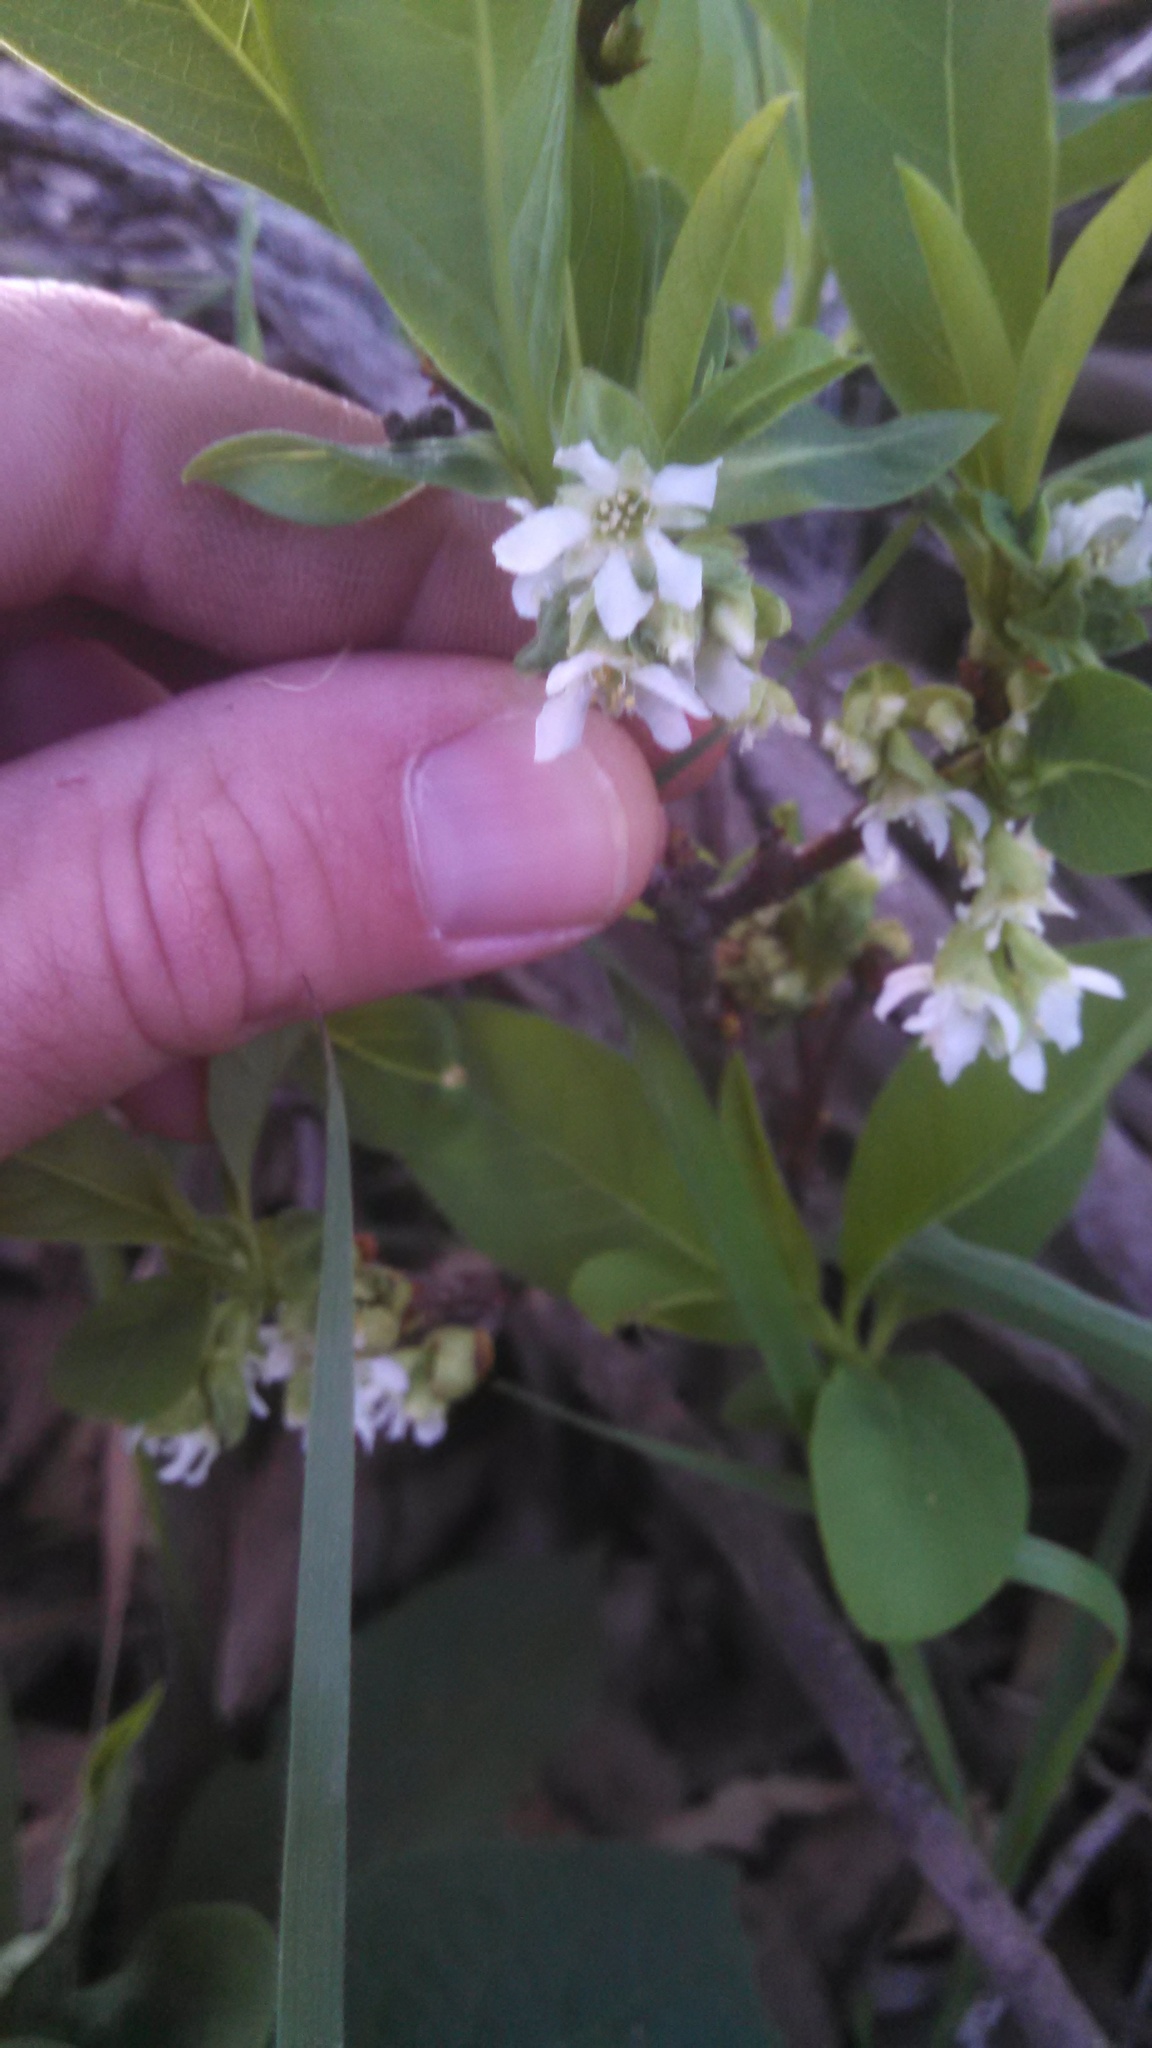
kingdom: Plantae
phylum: Tracheophyta
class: Magnoliopsida
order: Rosales
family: Rosaceae
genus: Oemleria
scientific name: Oemleria cerasiformis
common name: Osoberry
